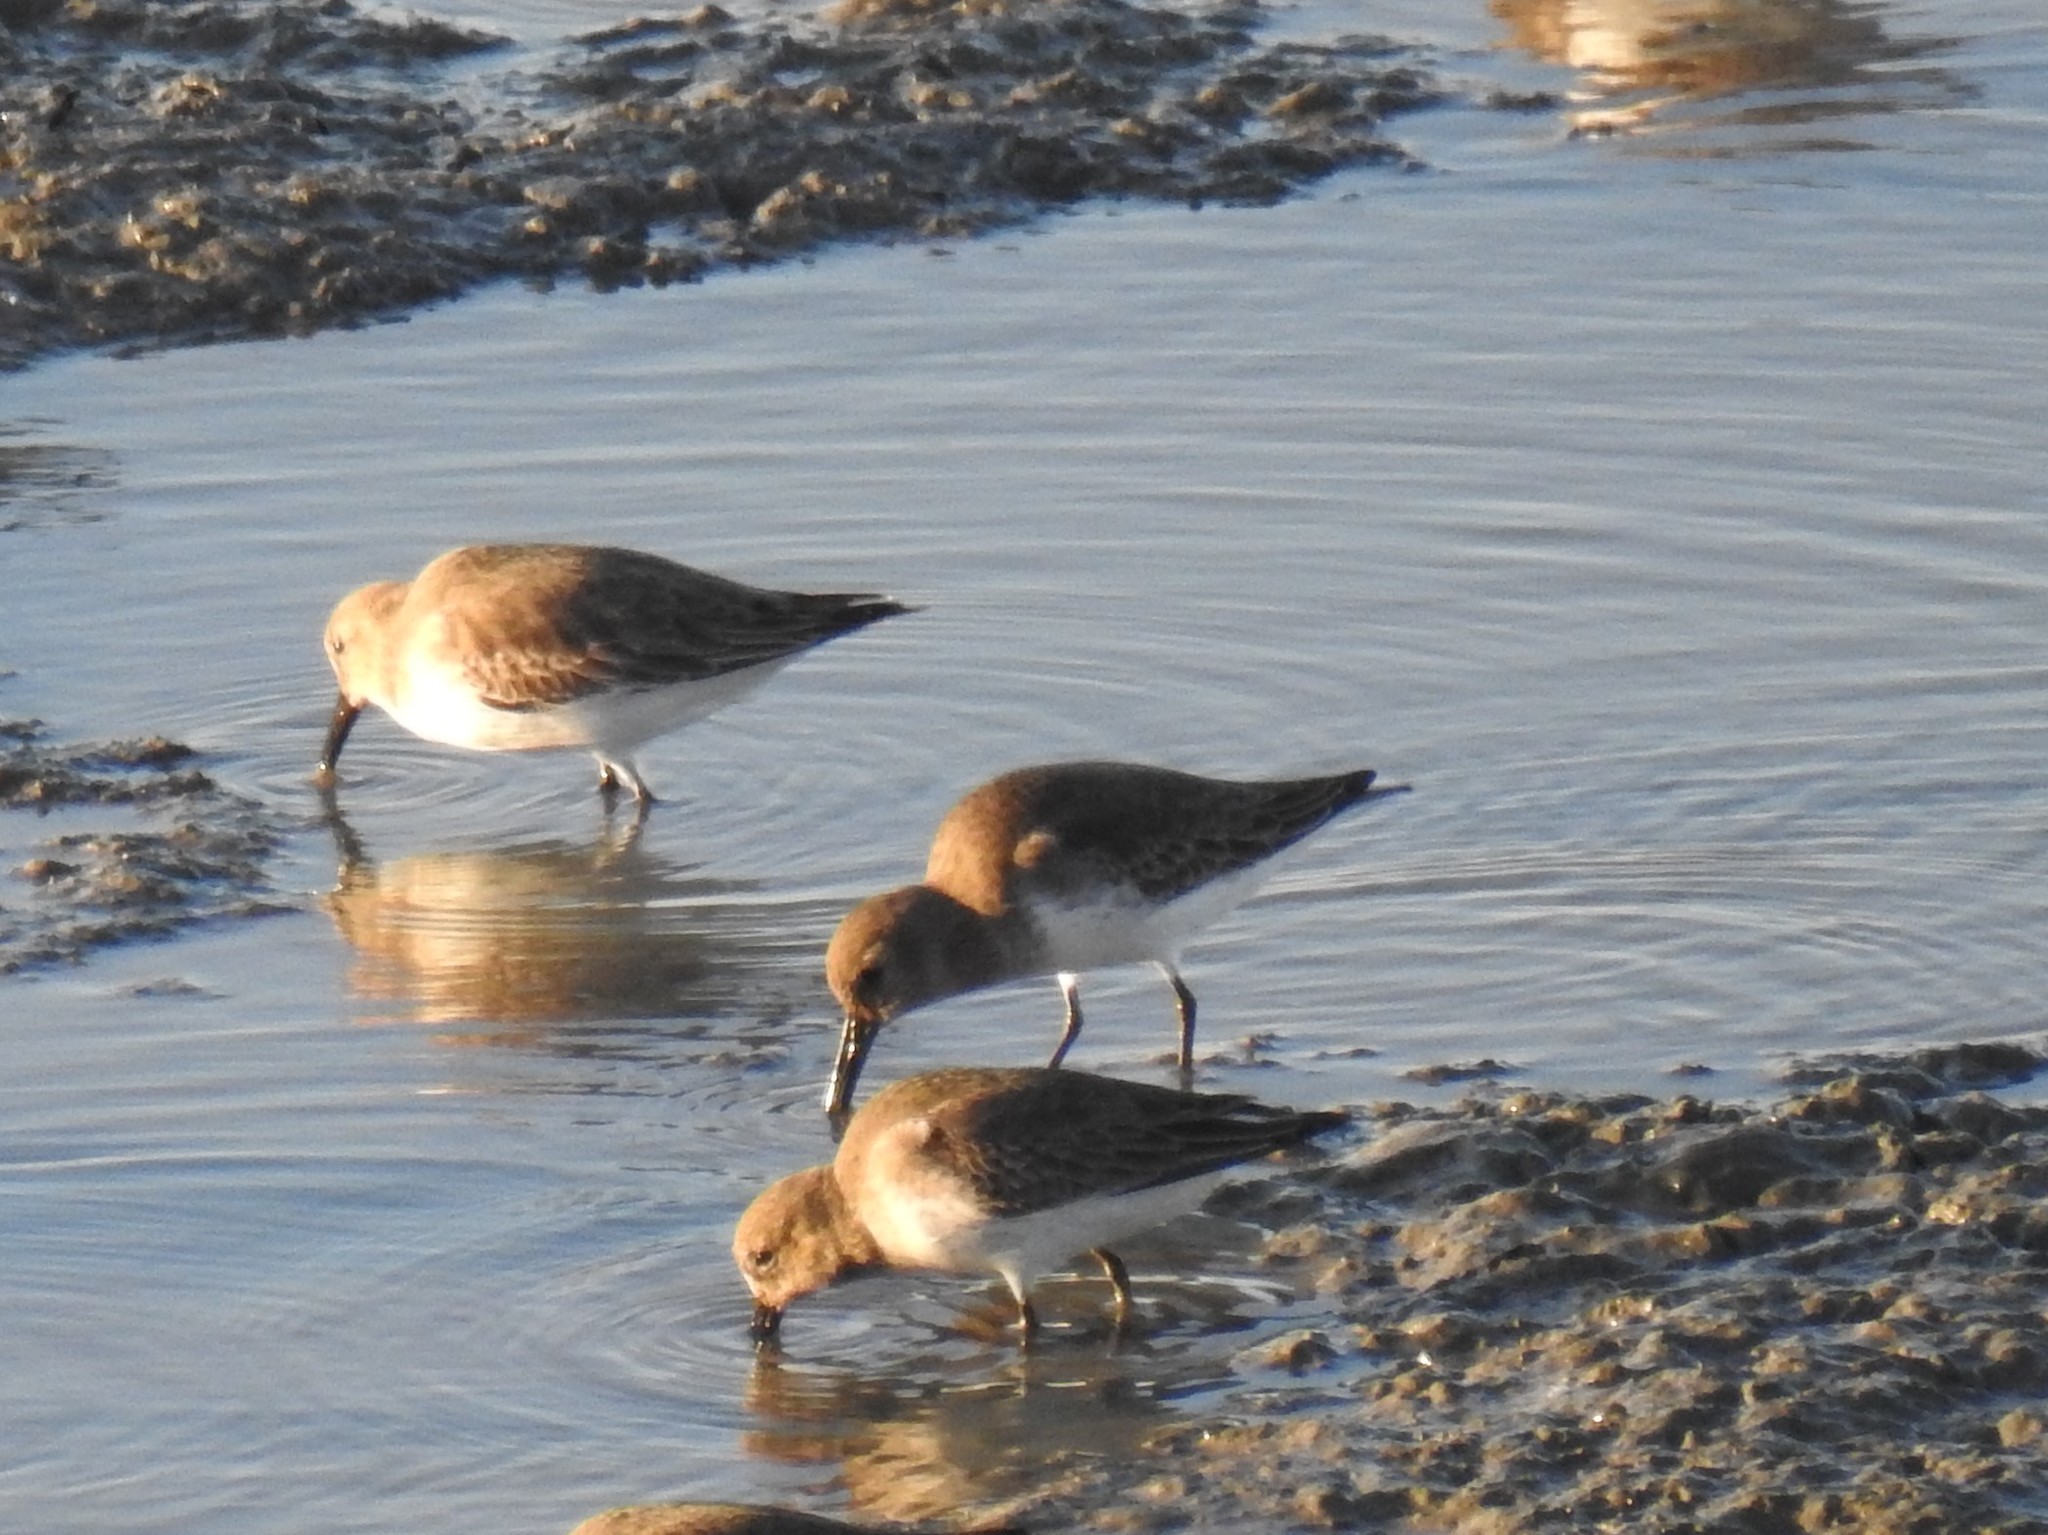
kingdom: Animalia
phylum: Chordata
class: Aves
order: Charadriiformes
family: Scolopacidae
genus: Calidris
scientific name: Calidris alpina
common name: Dunlin
